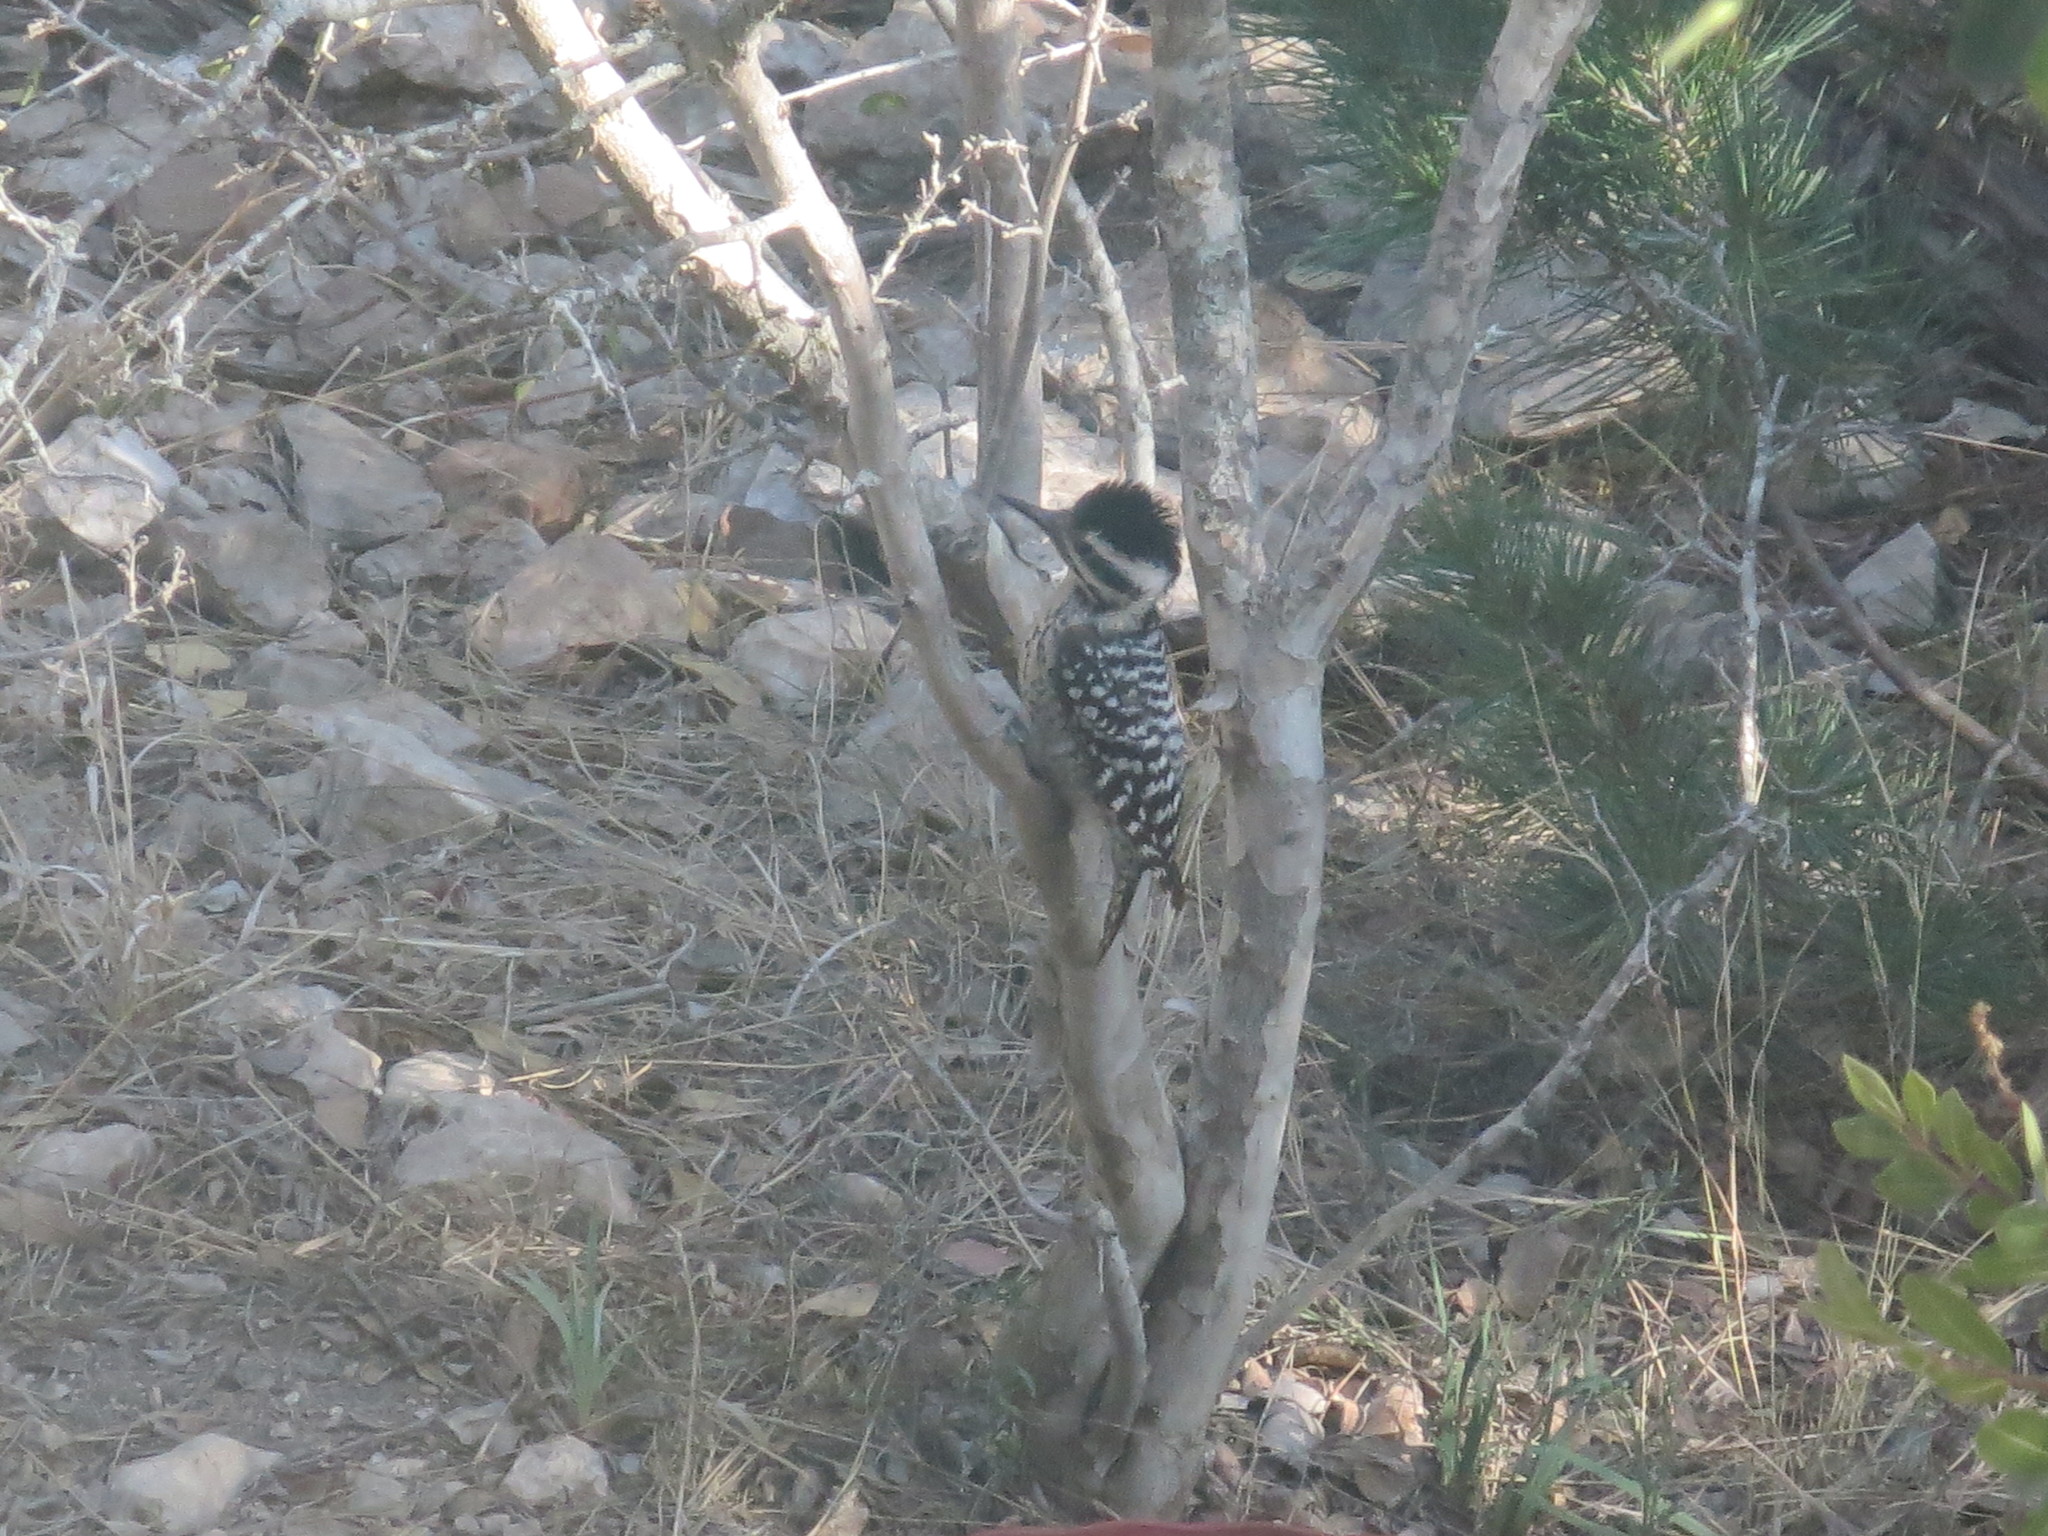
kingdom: Animalia
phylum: Chordata
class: Aves
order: Piciformes
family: Picidae
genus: Dryobates
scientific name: Dryobates scalaris
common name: Ladder-backed woodpecker
